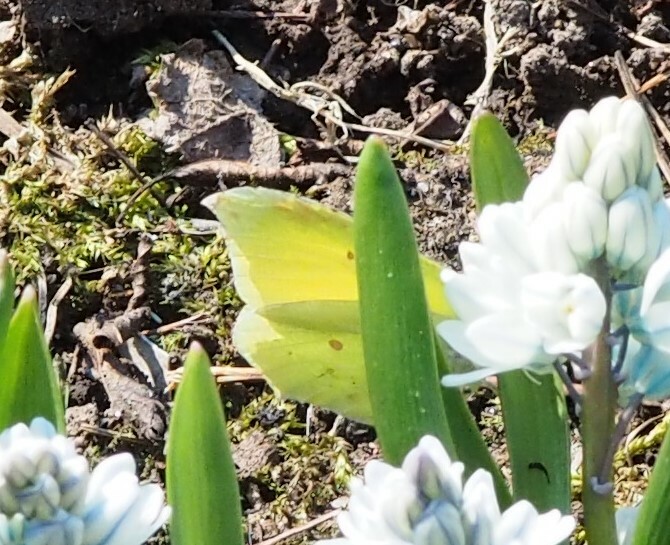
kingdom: Animalia
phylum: Arthropoda
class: Insecta
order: Lepidoptera
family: Pieridae
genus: Gonepteryx
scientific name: Gonepteryx rhamni
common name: Brimstone
